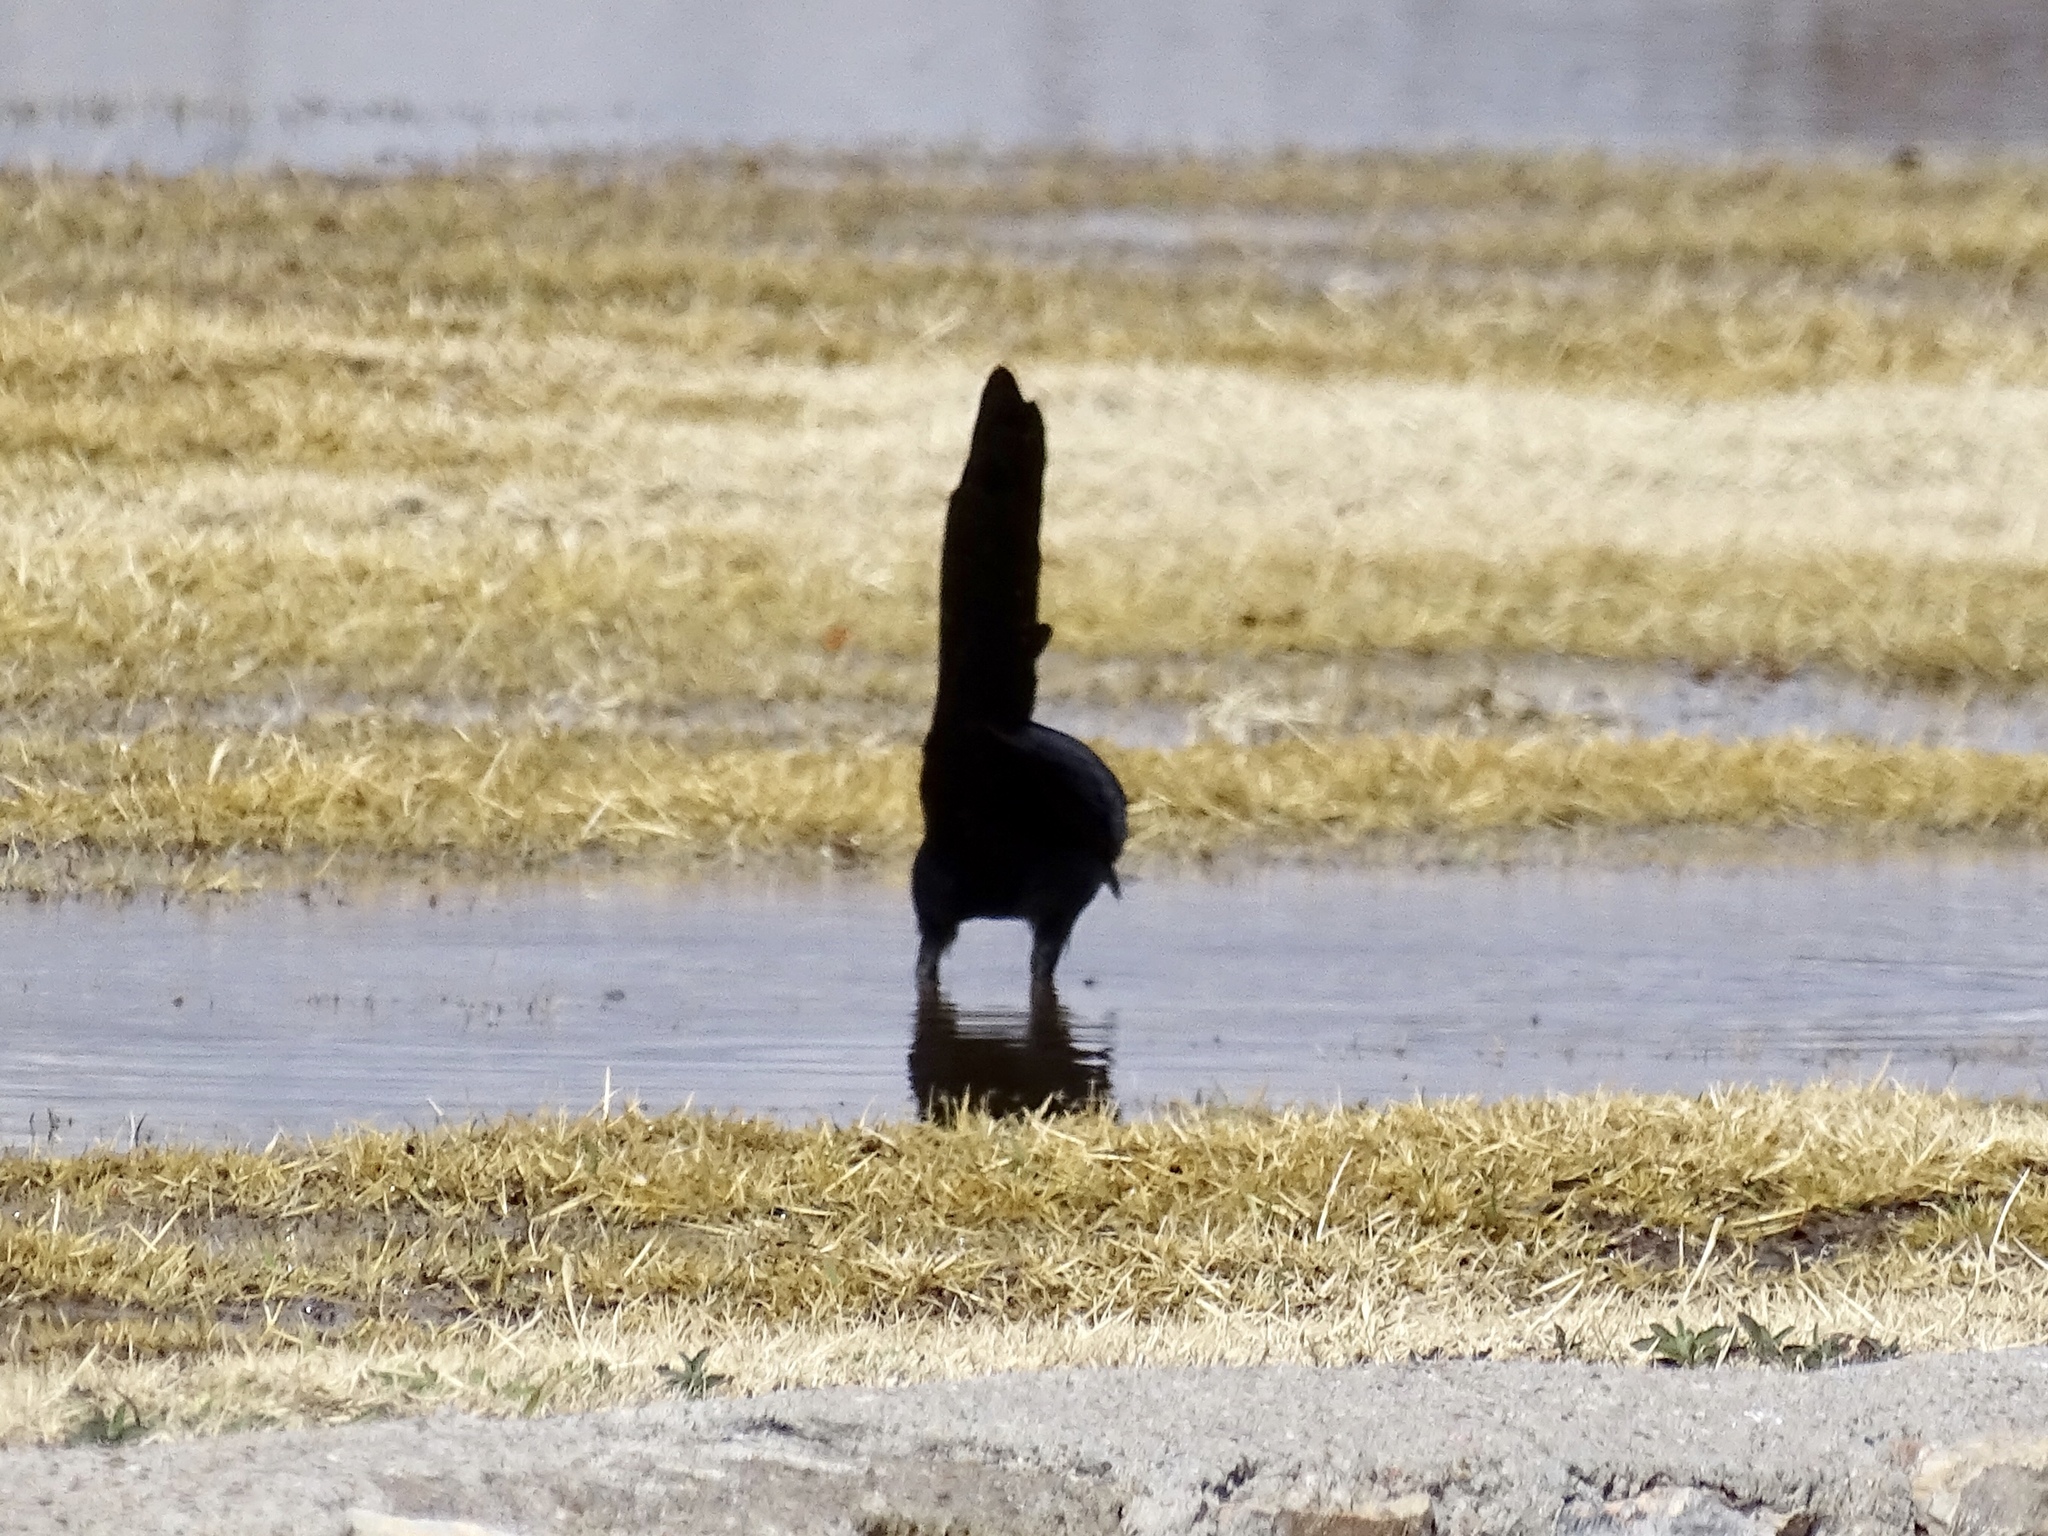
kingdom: Animalia
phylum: Chordata
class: Aves
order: Passeriformes
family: Icteridae
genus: Quiscalus
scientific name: Quiscalus mexicanus
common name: Great-tailed grackle
